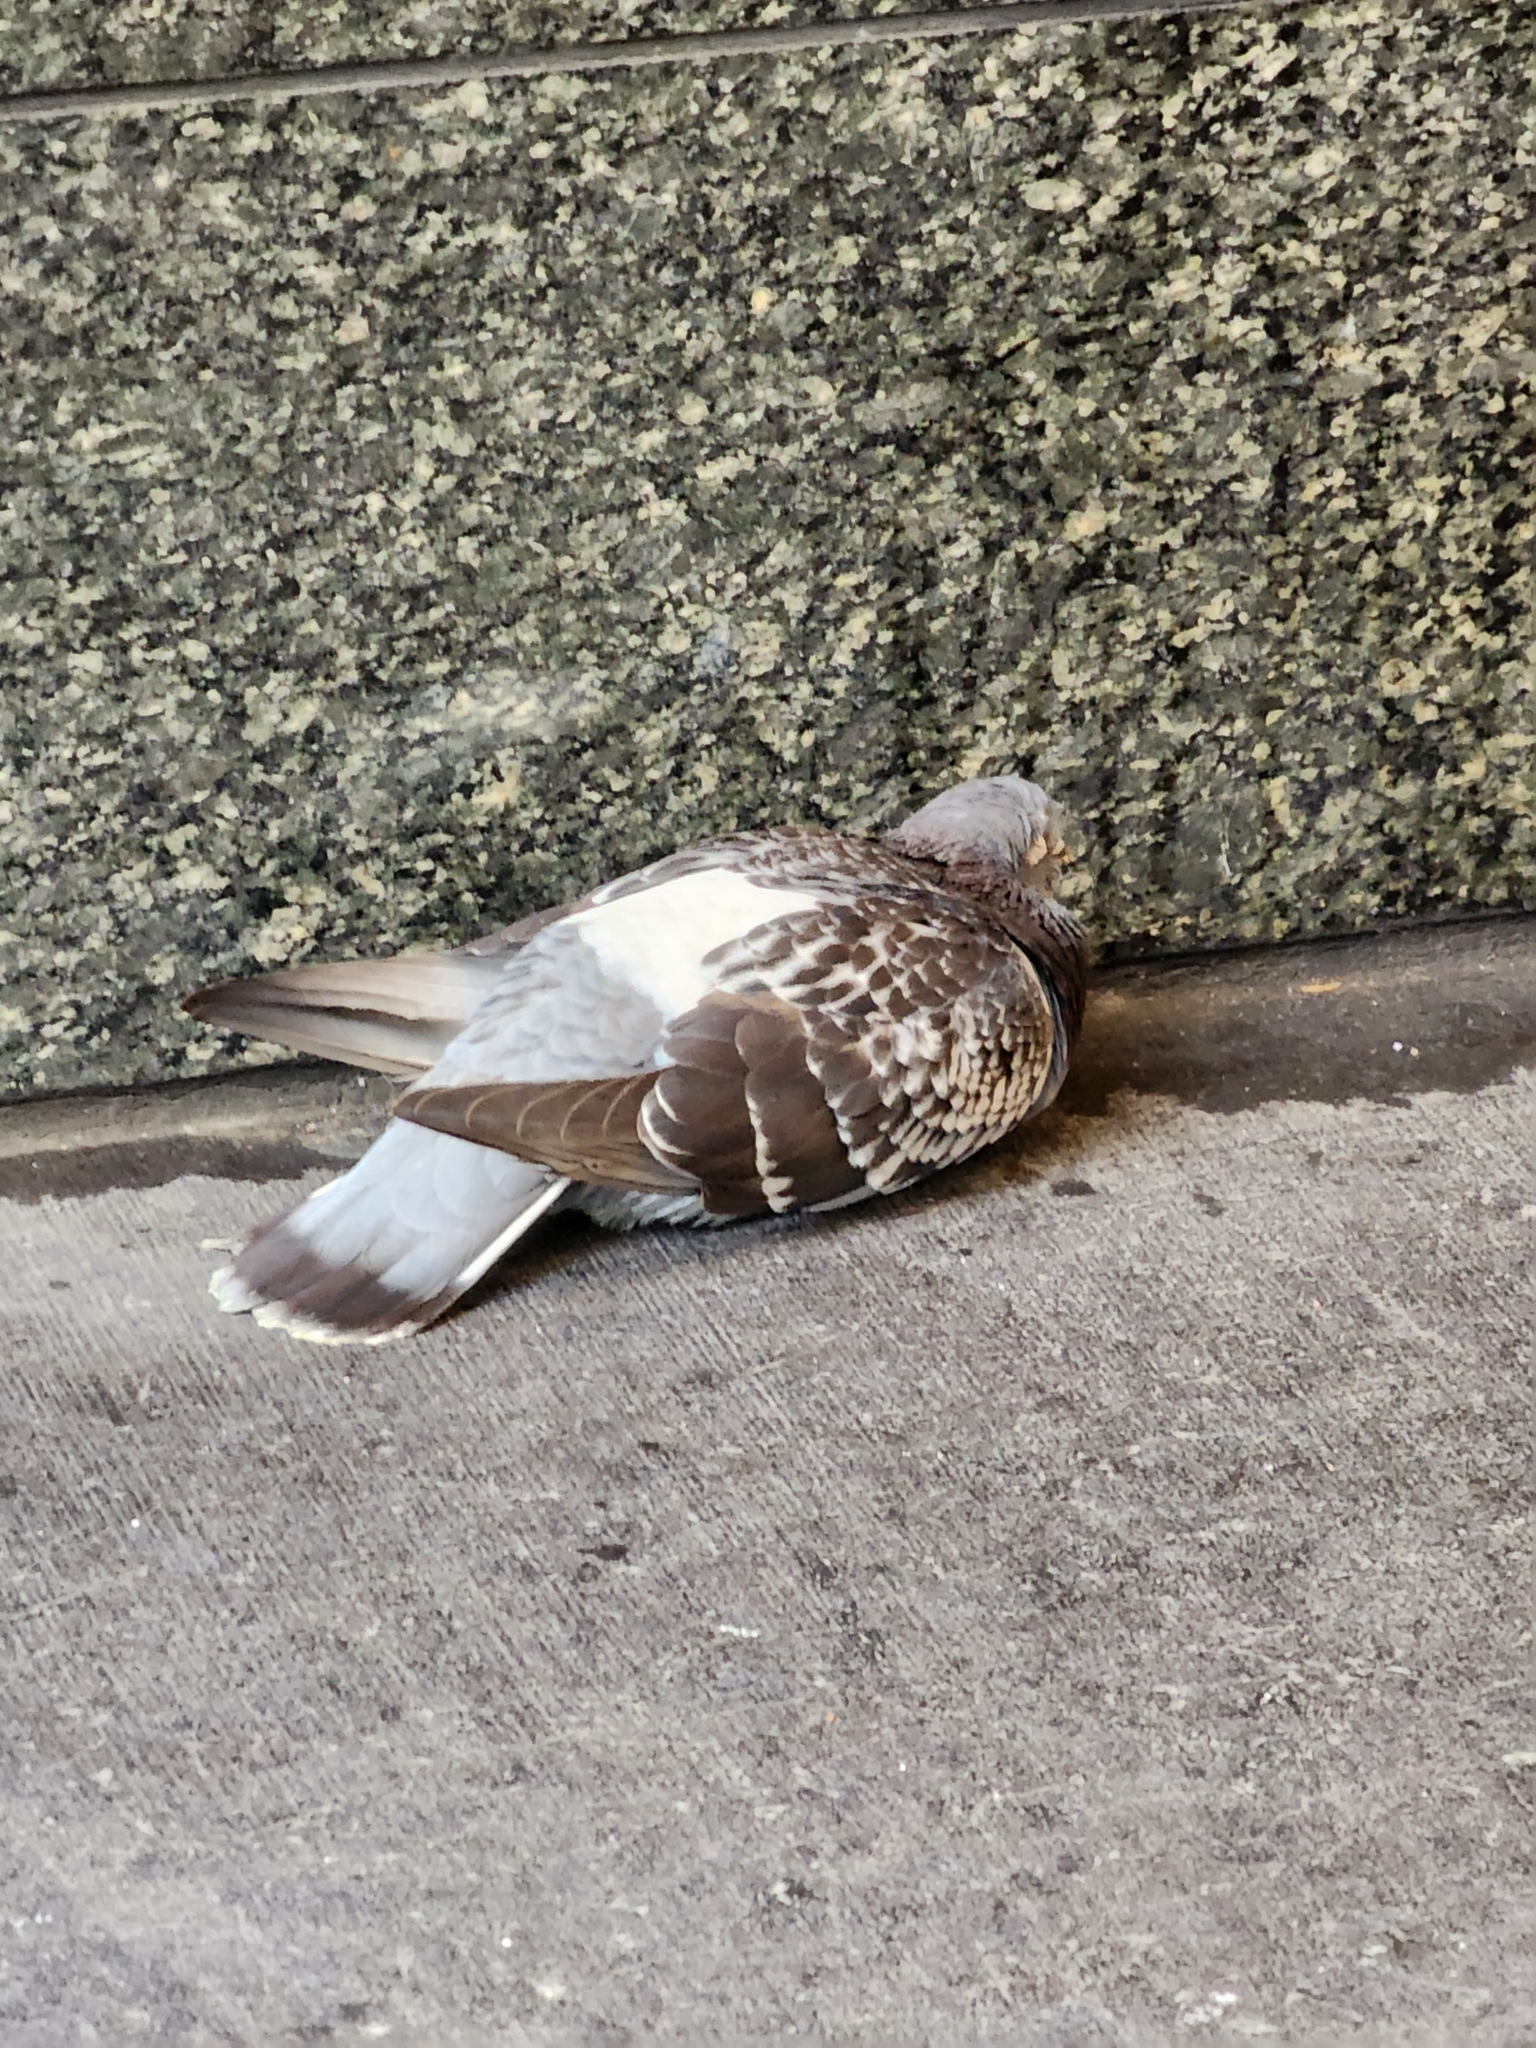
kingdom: Animalia
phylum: Chordata
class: Aves
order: Columbiformes
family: Columbidae
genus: Columba
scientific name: Columba livia
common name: Rock pigeon
